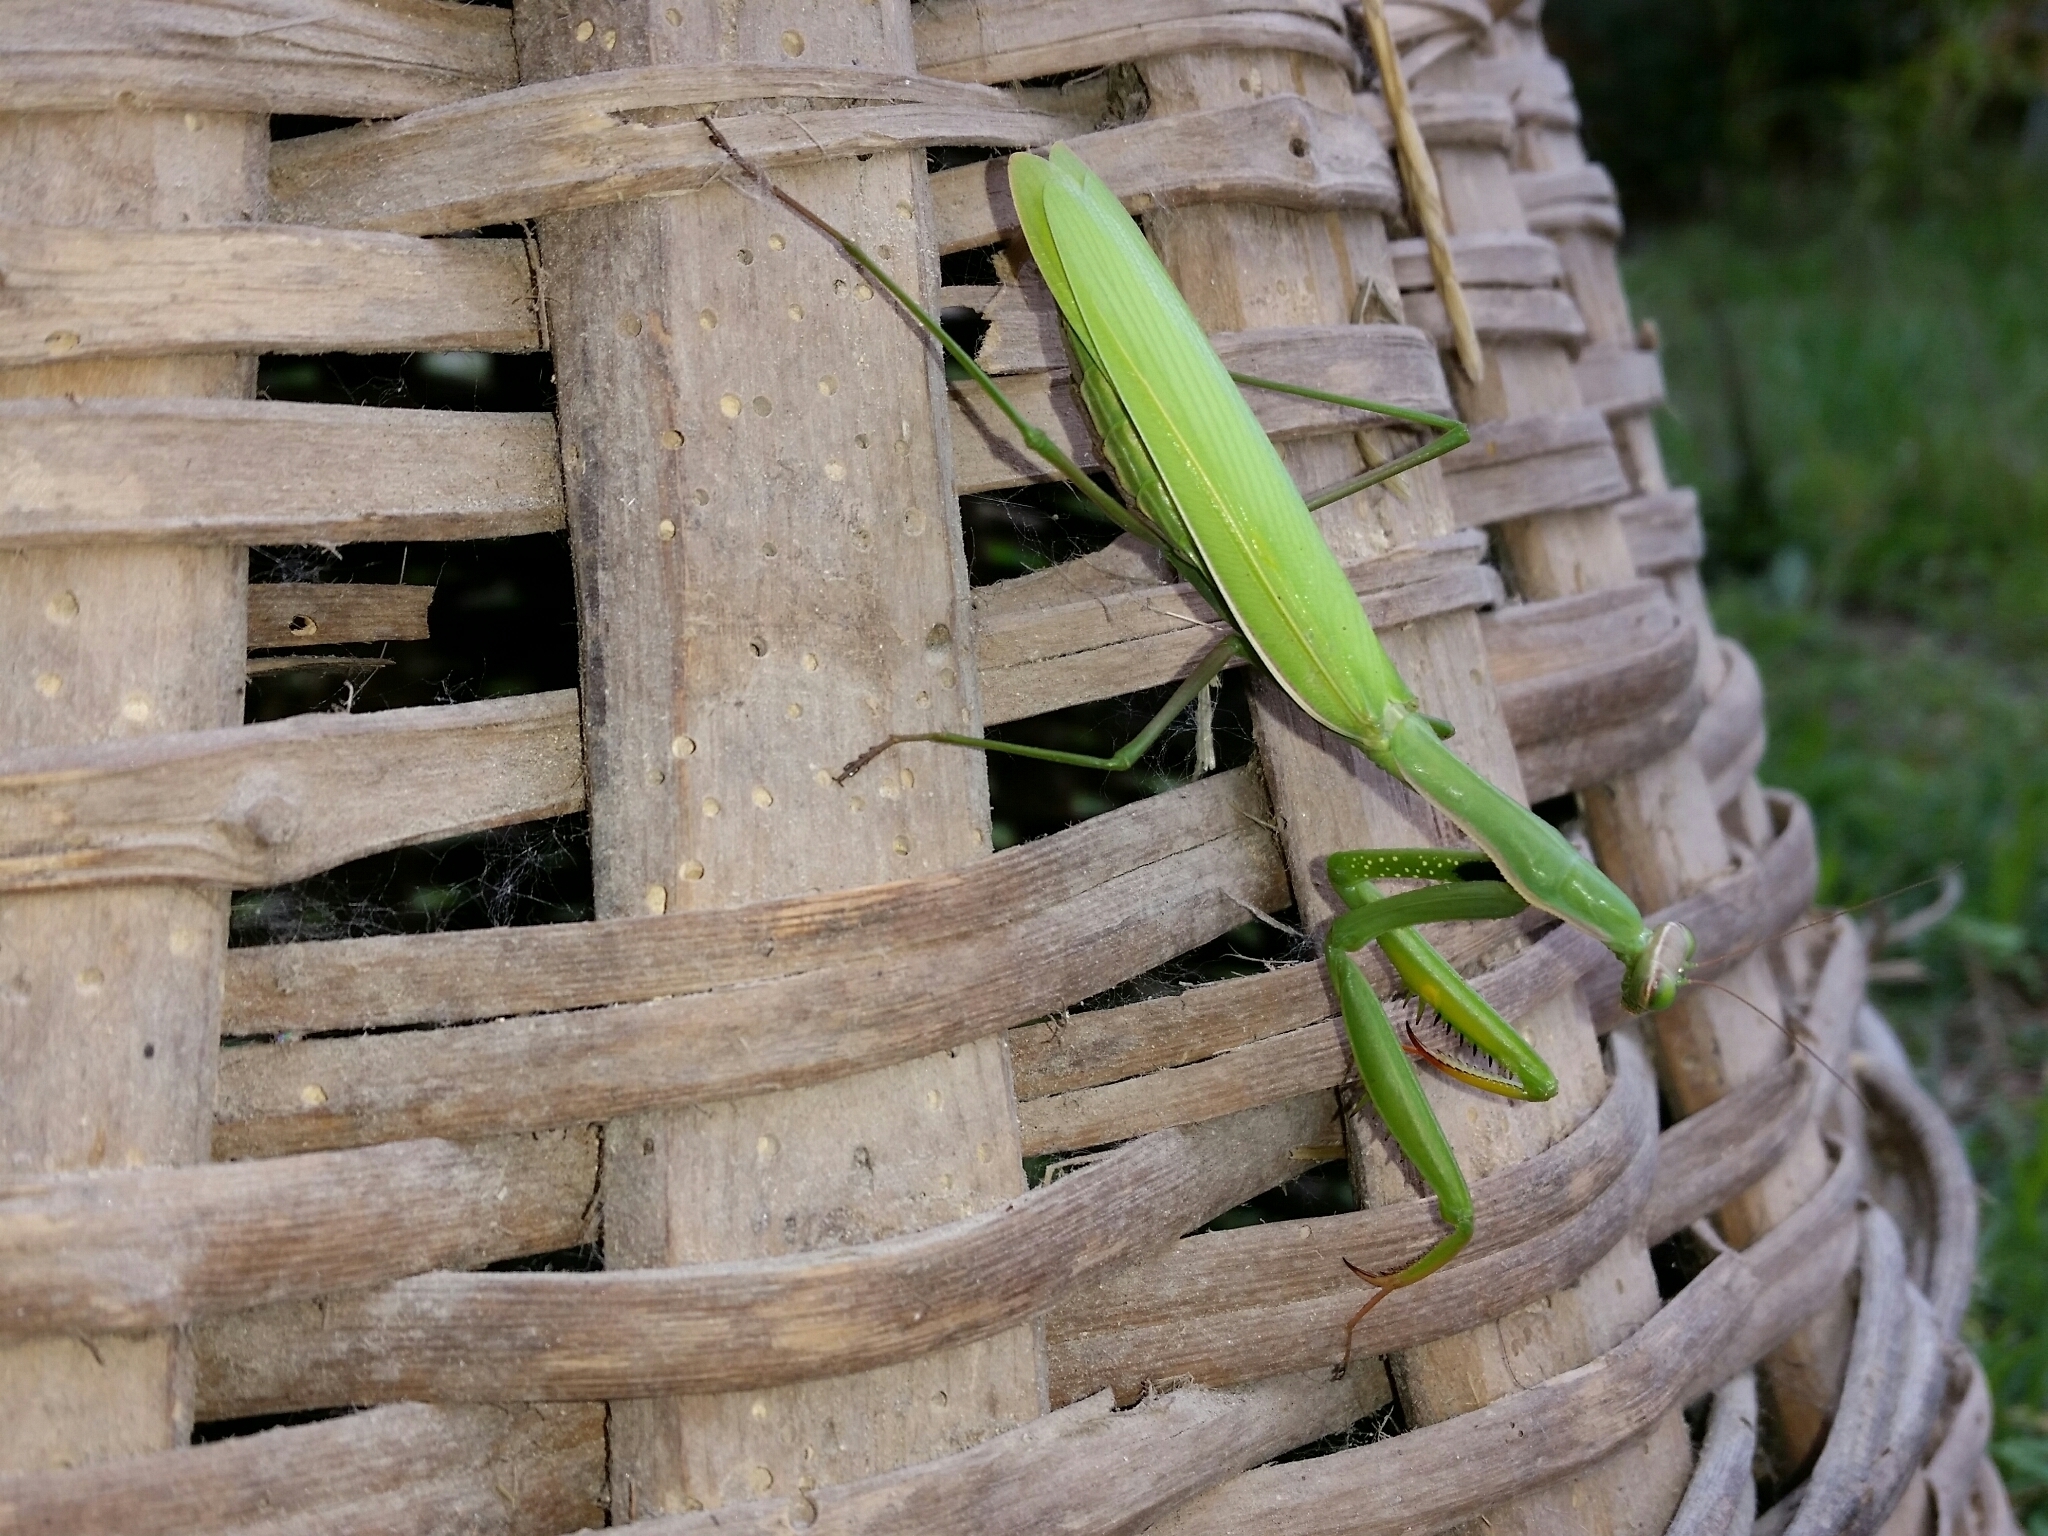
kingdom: Animalia
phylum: Arthropoda
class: Insecta
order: Mantodea
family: Mantidae
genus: Mantis
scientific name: Mantis religiosa
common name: Praying mantis
